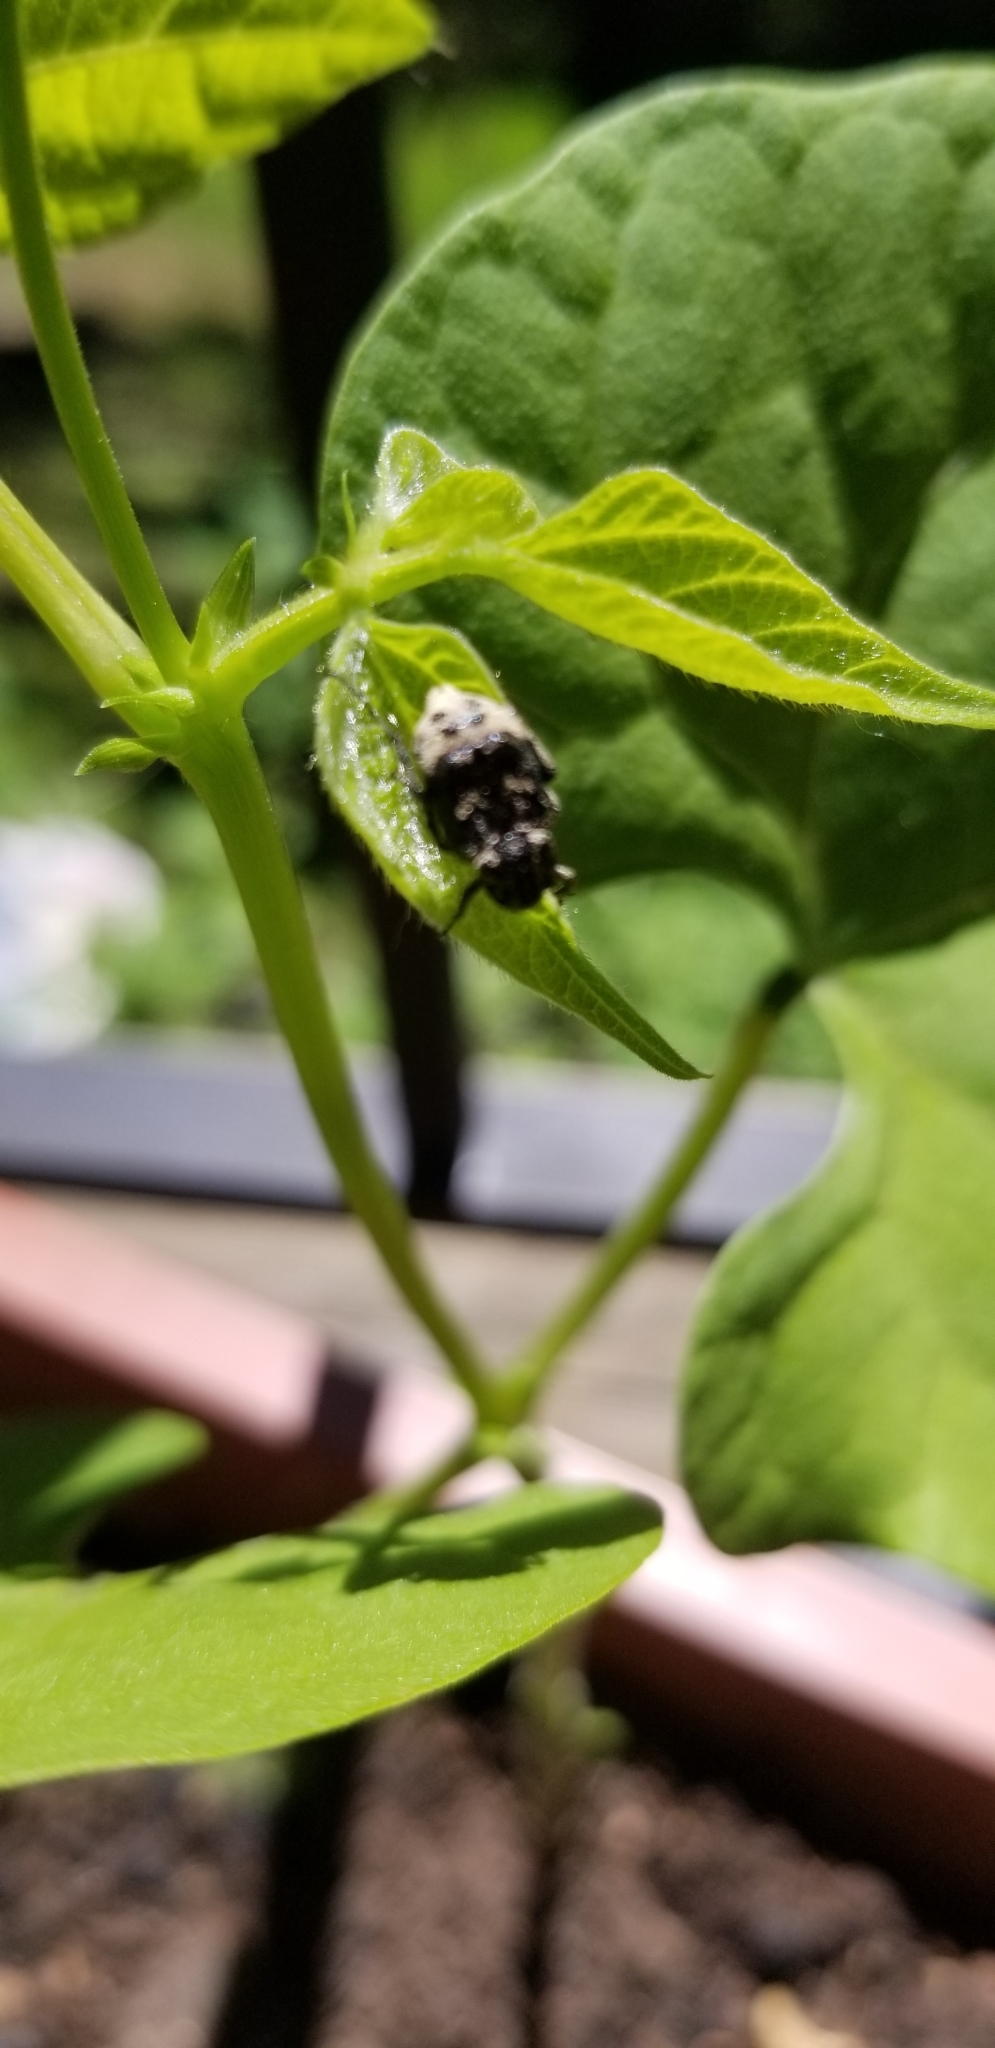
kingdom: Animalia
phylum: Arthropoda
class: Insecta
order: Coleoptera
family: Scarabaeidae
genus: Valgus
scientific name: Valgus hemipterus
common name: Bug flower chafer
